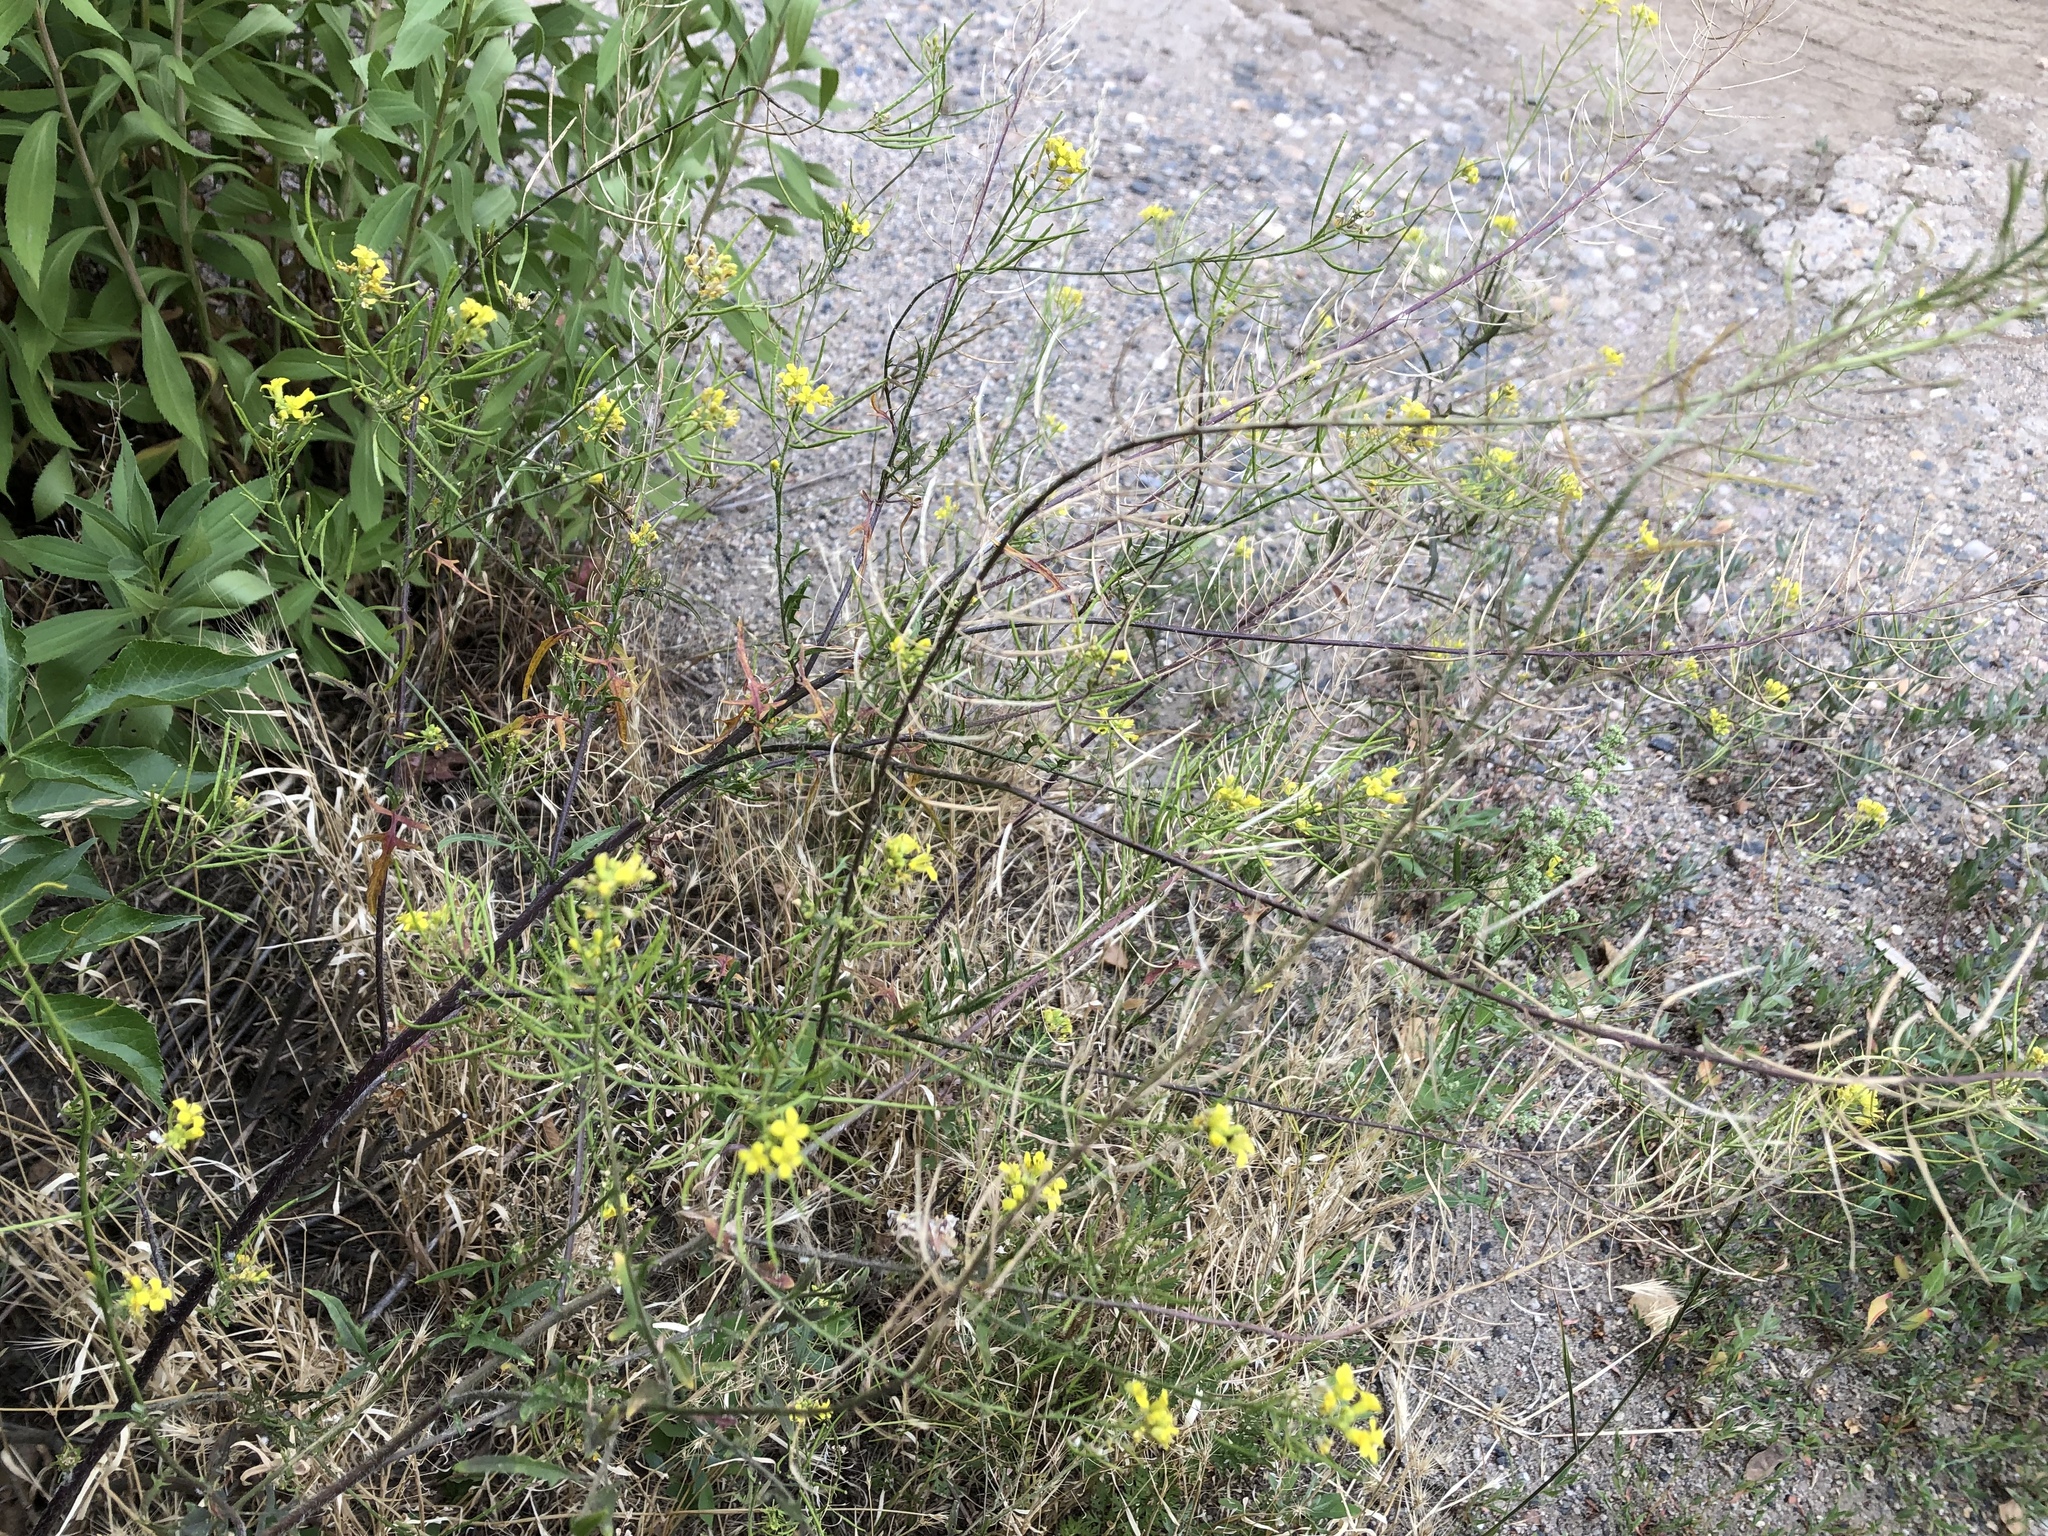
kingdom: Plantae
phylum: Tracheophyta
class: Magnoliopsida
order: Brassicales
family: Brassicaceae
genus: Sisymbrium
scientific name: Sisymbrium loeselii
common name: False london-rocket
